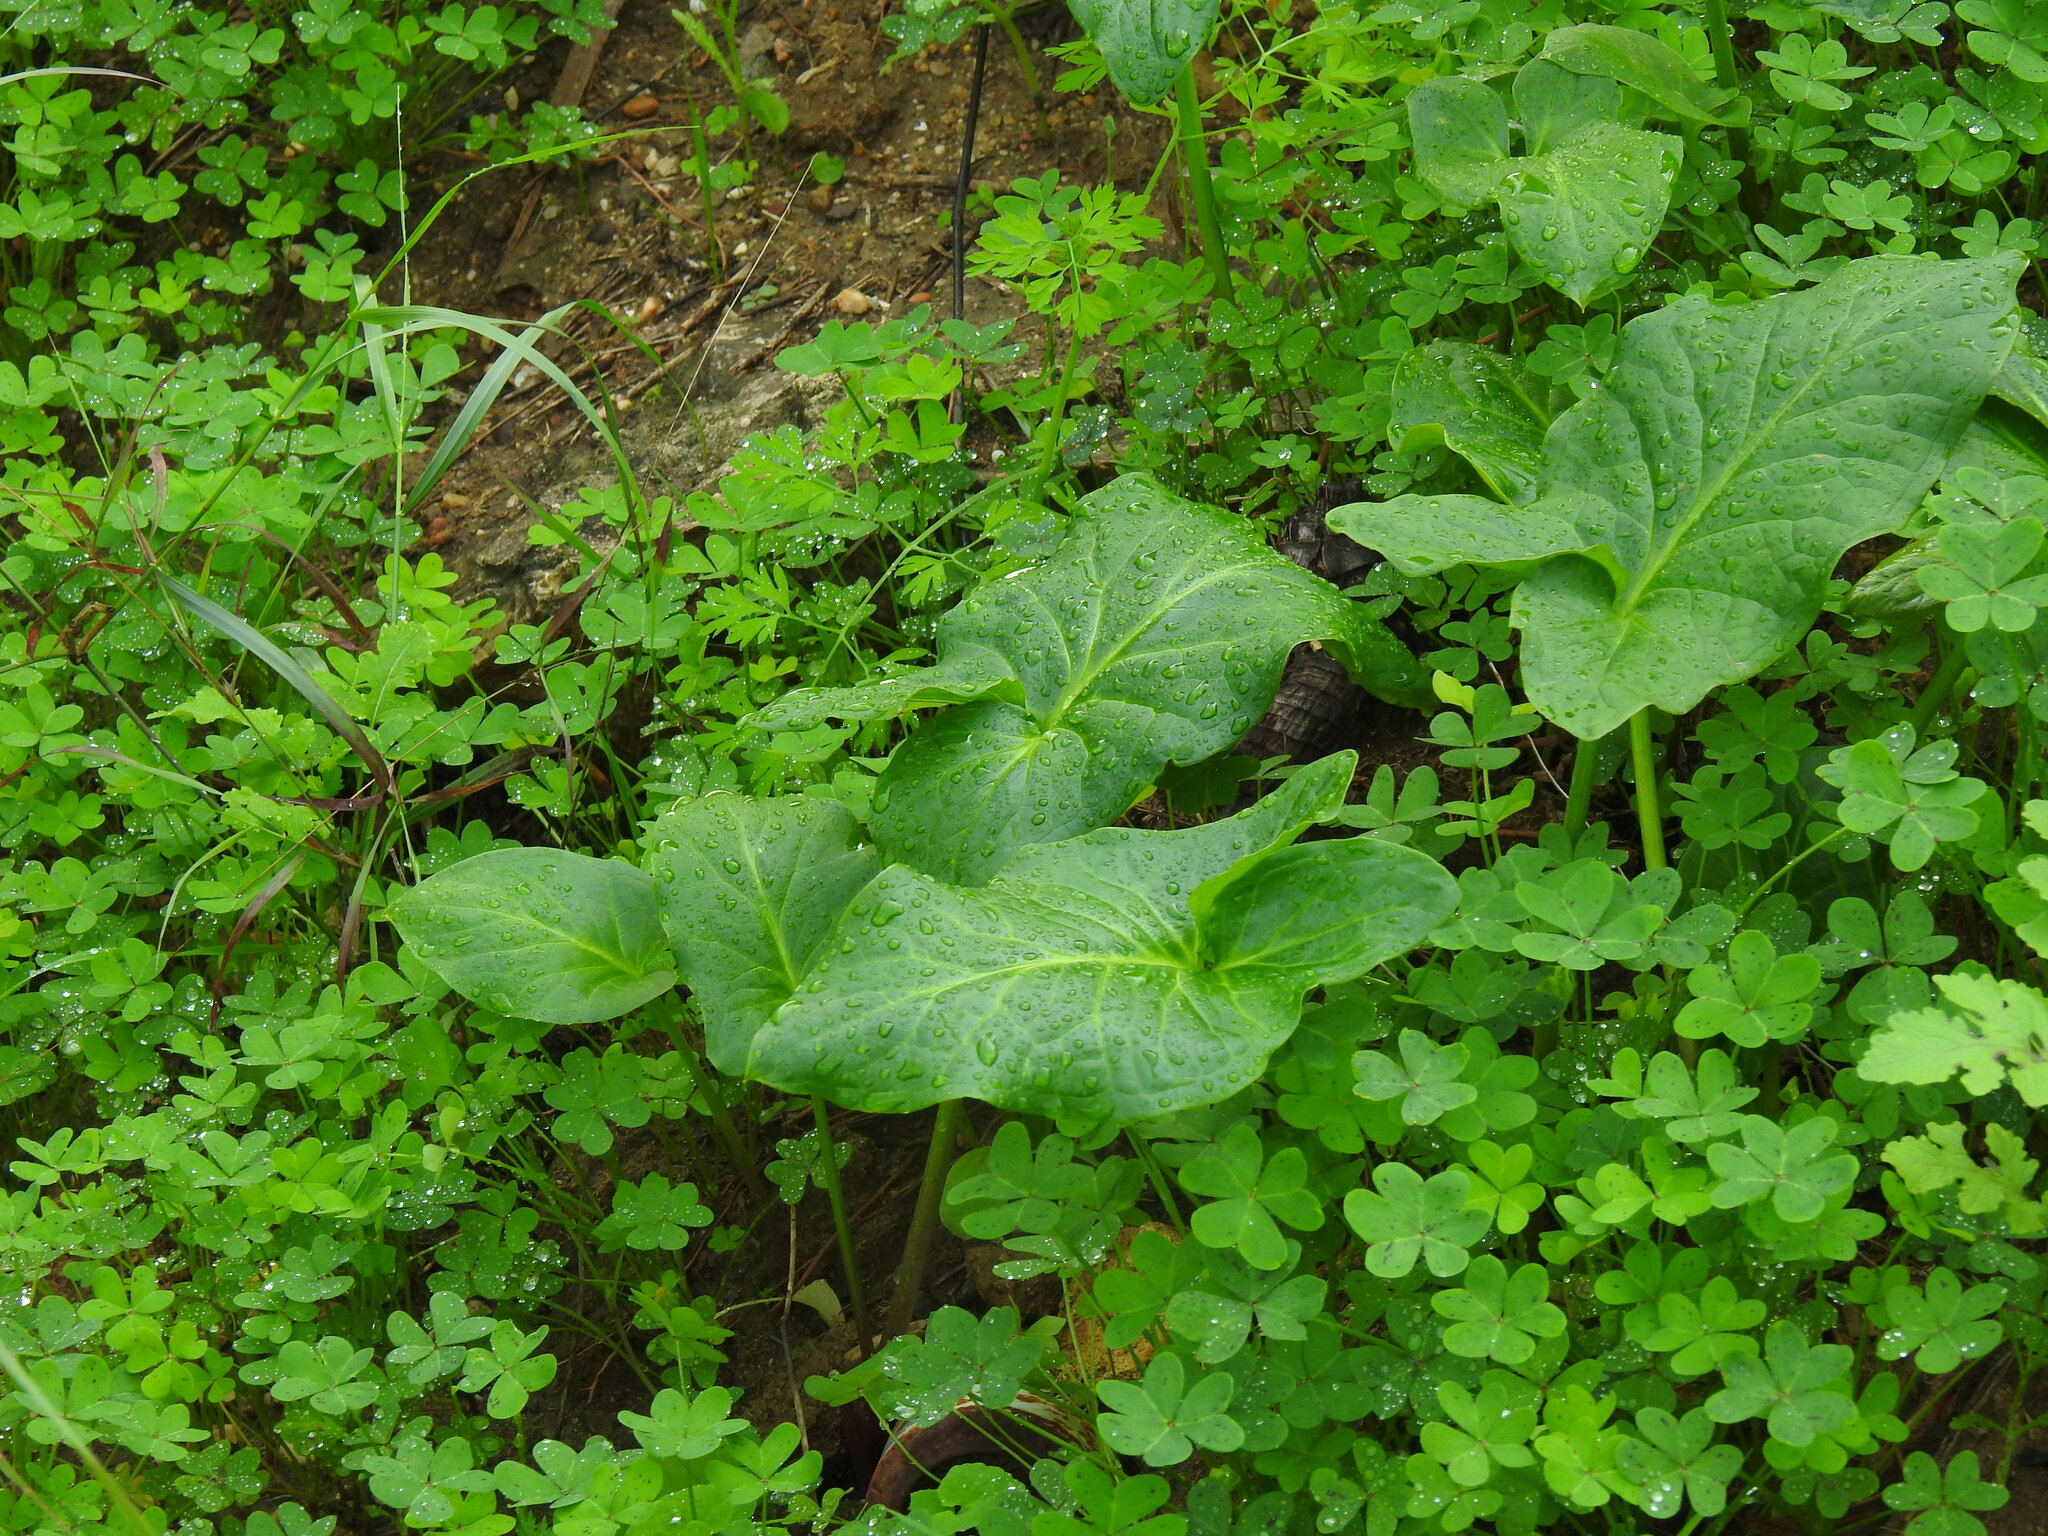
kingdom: Plantae
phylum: Tracheophyta
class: Liliopsida
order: Alismatales
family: Araceae
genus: Arum
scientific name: Arum italicum
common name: Italian lords-and-ladies
